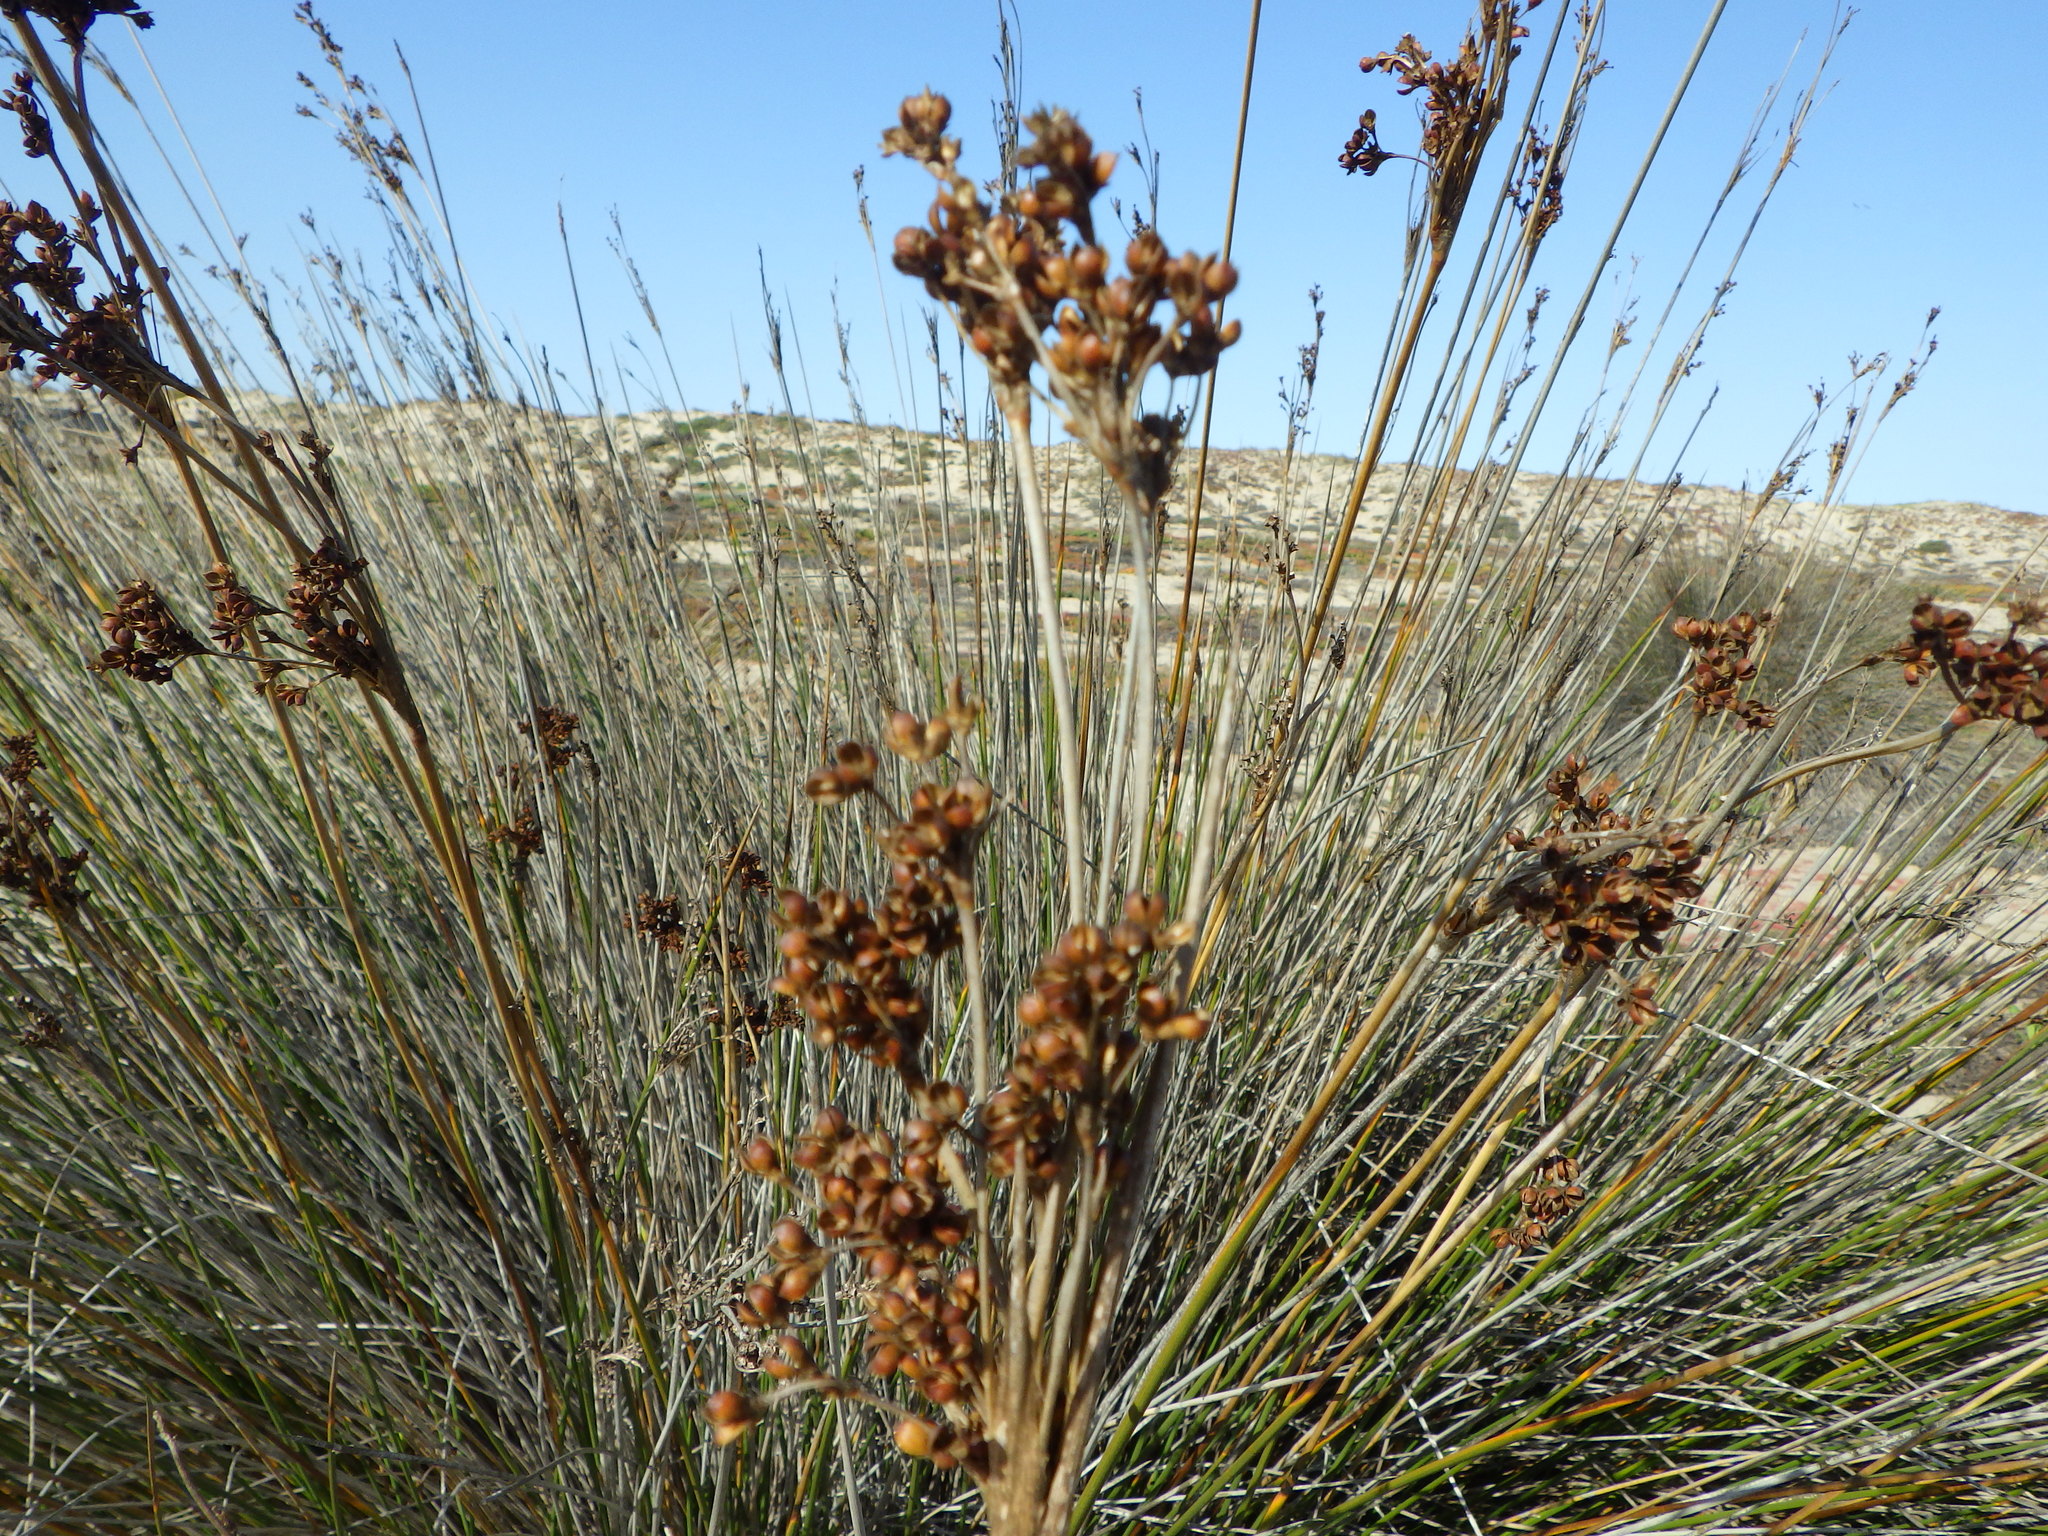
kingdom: Plantae
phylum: Tracheophyta
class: Liliopsida
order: Poales
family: Juncaceae
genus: Juncus
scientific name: Juncus acutus
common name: Sharp rush
